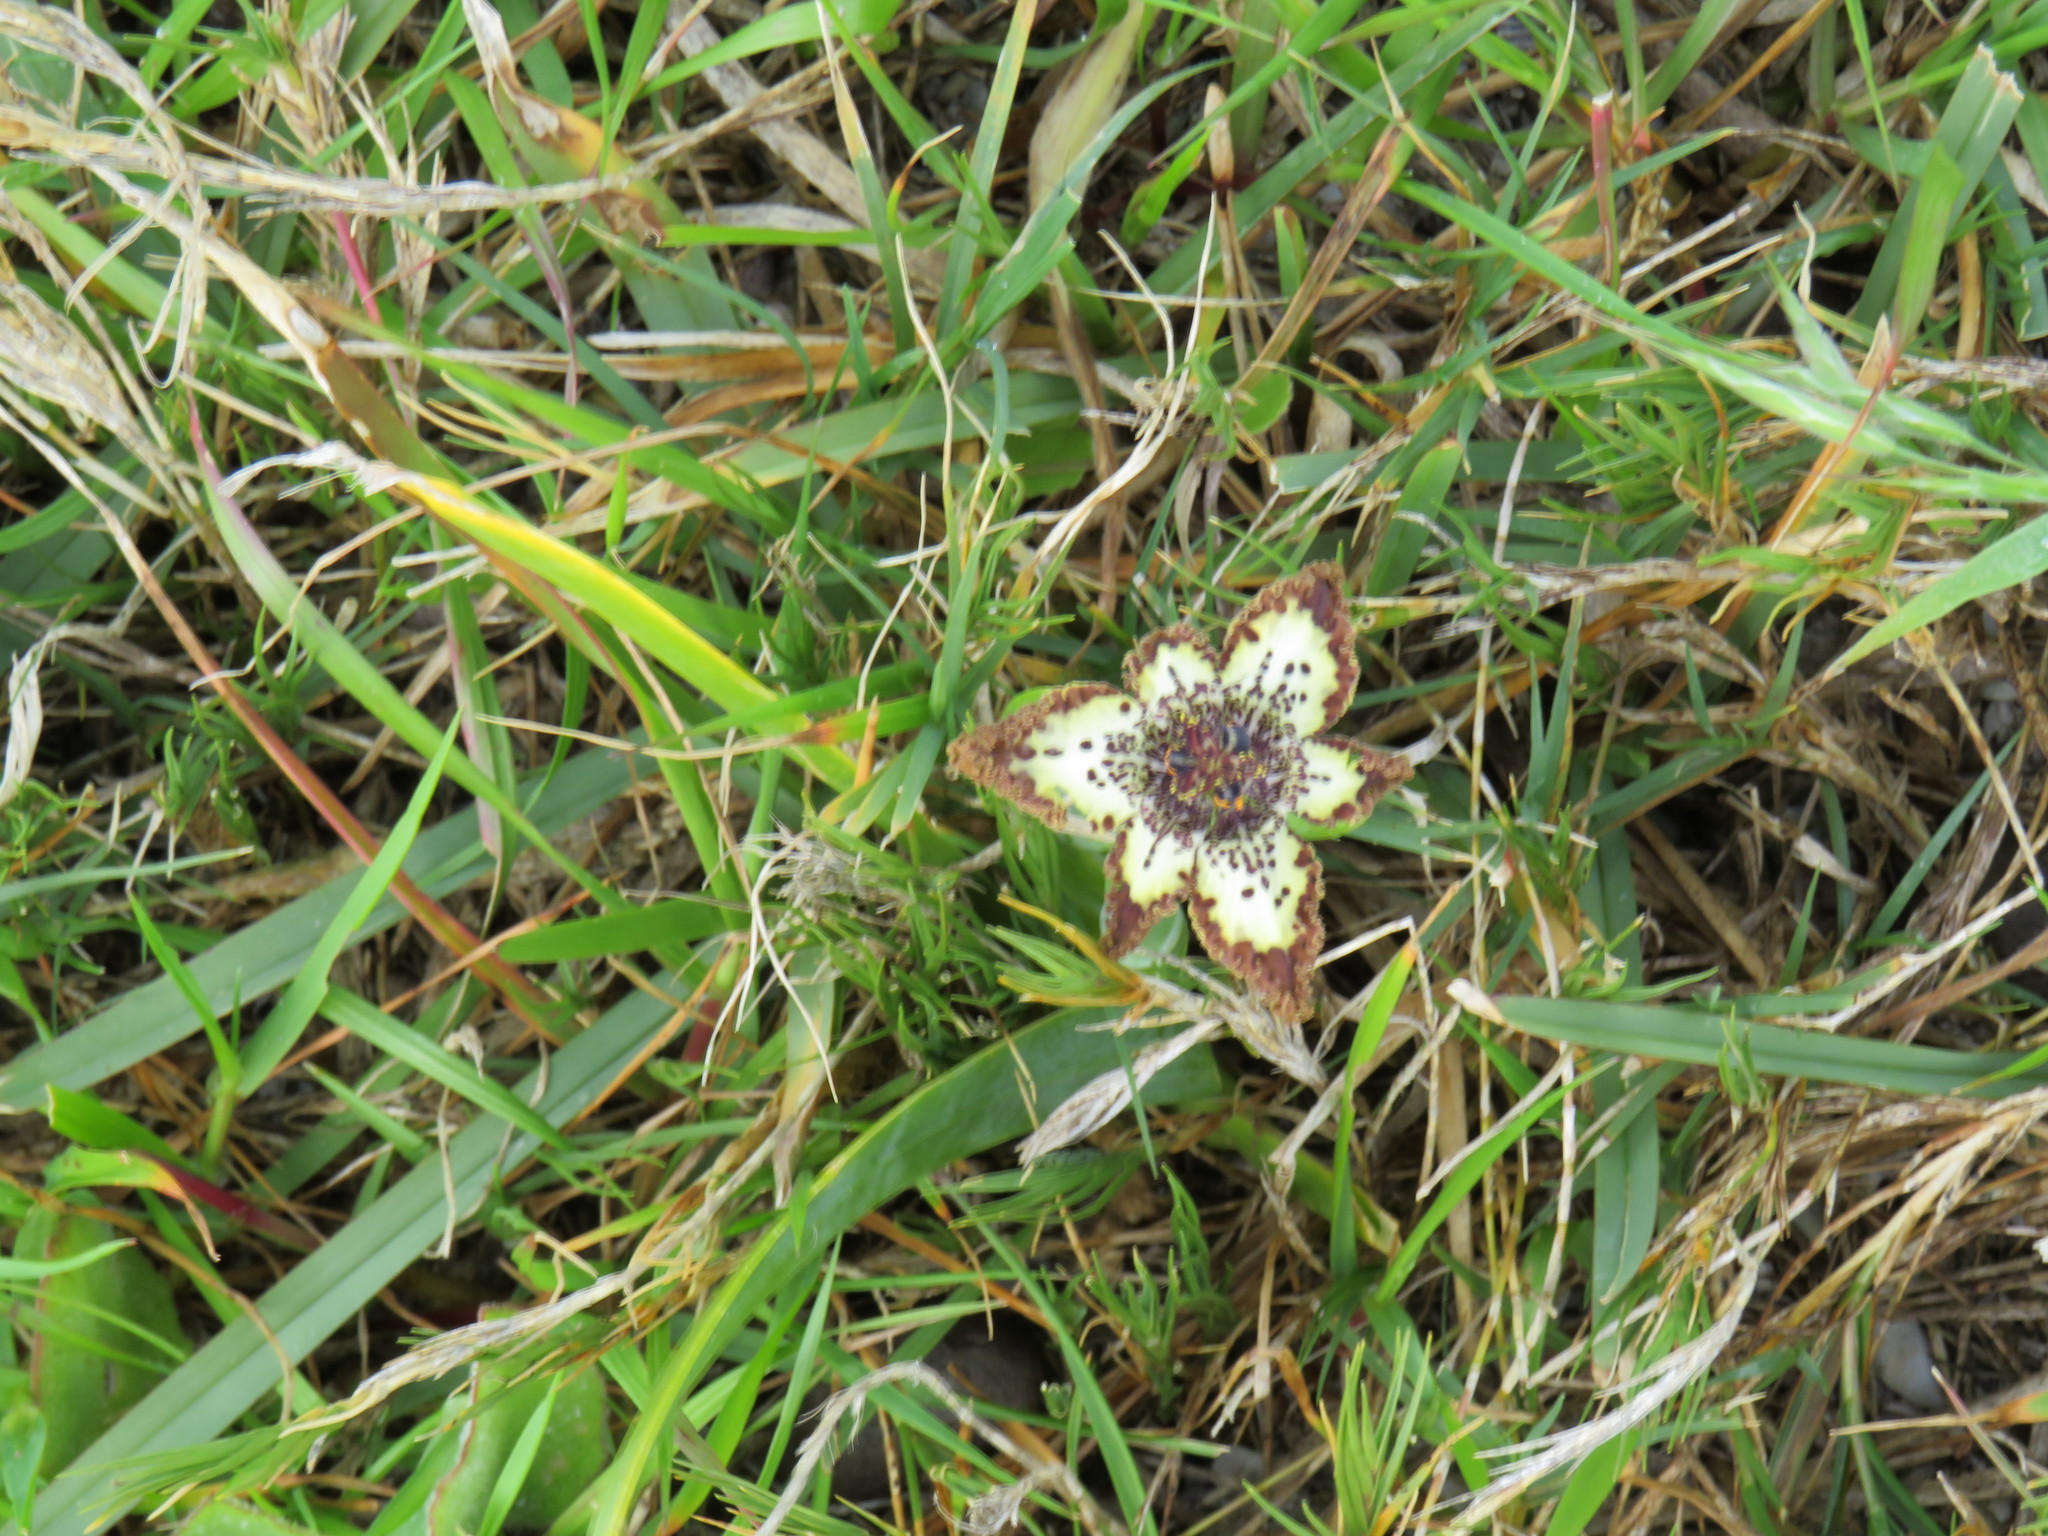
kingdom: Plantae
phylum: Tracheophyta
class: Liliopsida
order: Asparagales
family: Iridaceae
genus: Ferraria
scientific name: Ferraria crispa
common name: Black-flag
